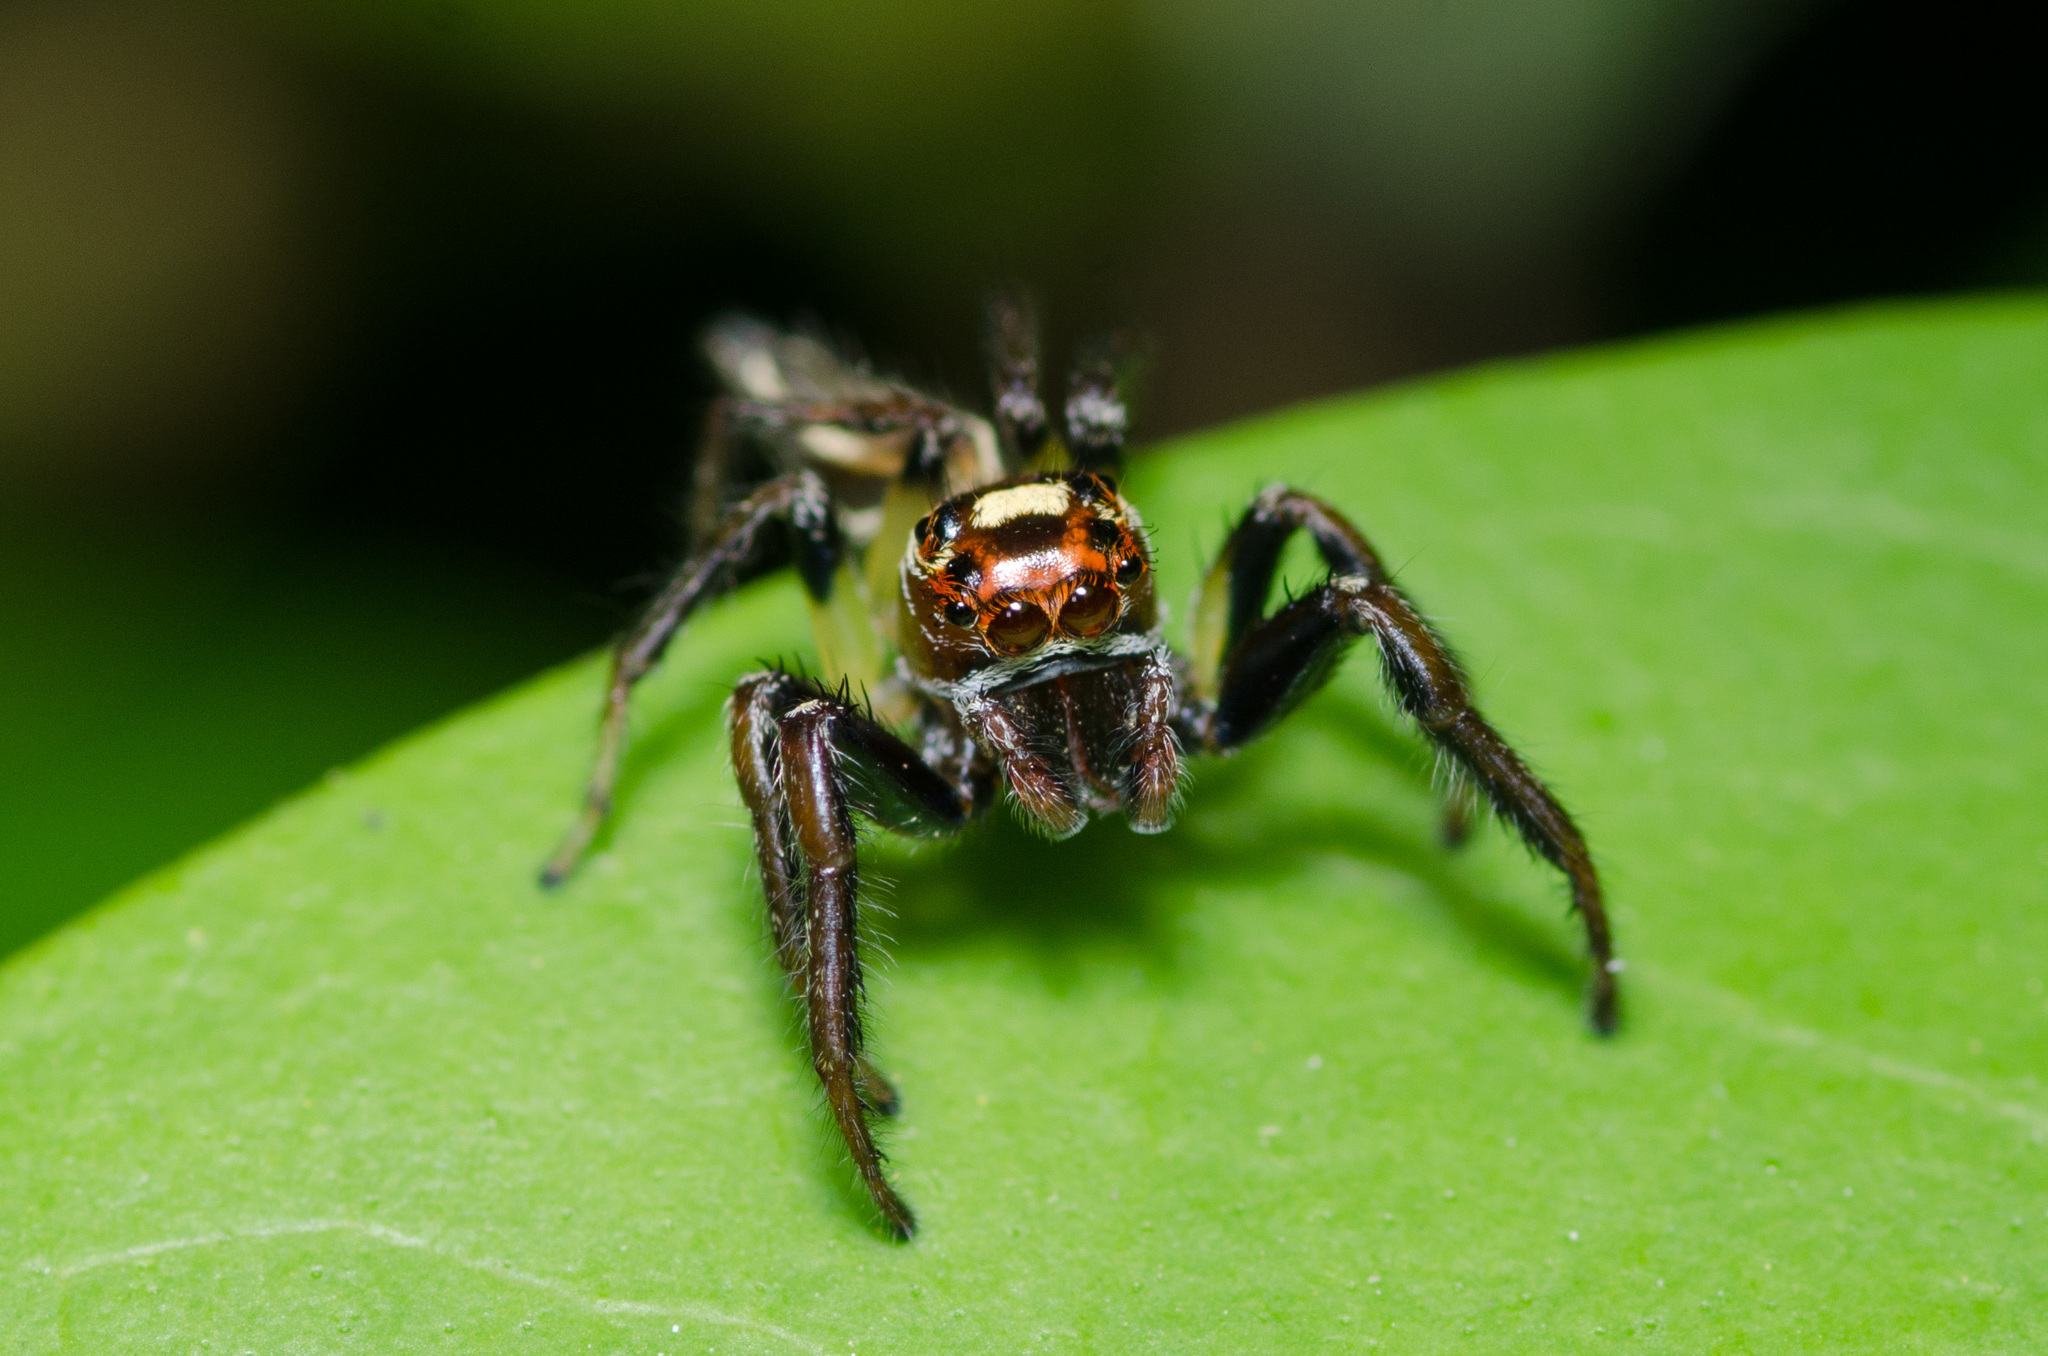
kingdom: Animalia
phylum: Arthropoda
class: Arachnida
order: Araneae
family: Salticidae
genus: Colonus
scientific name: Colonus sylvanus
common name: Jumping spiders
